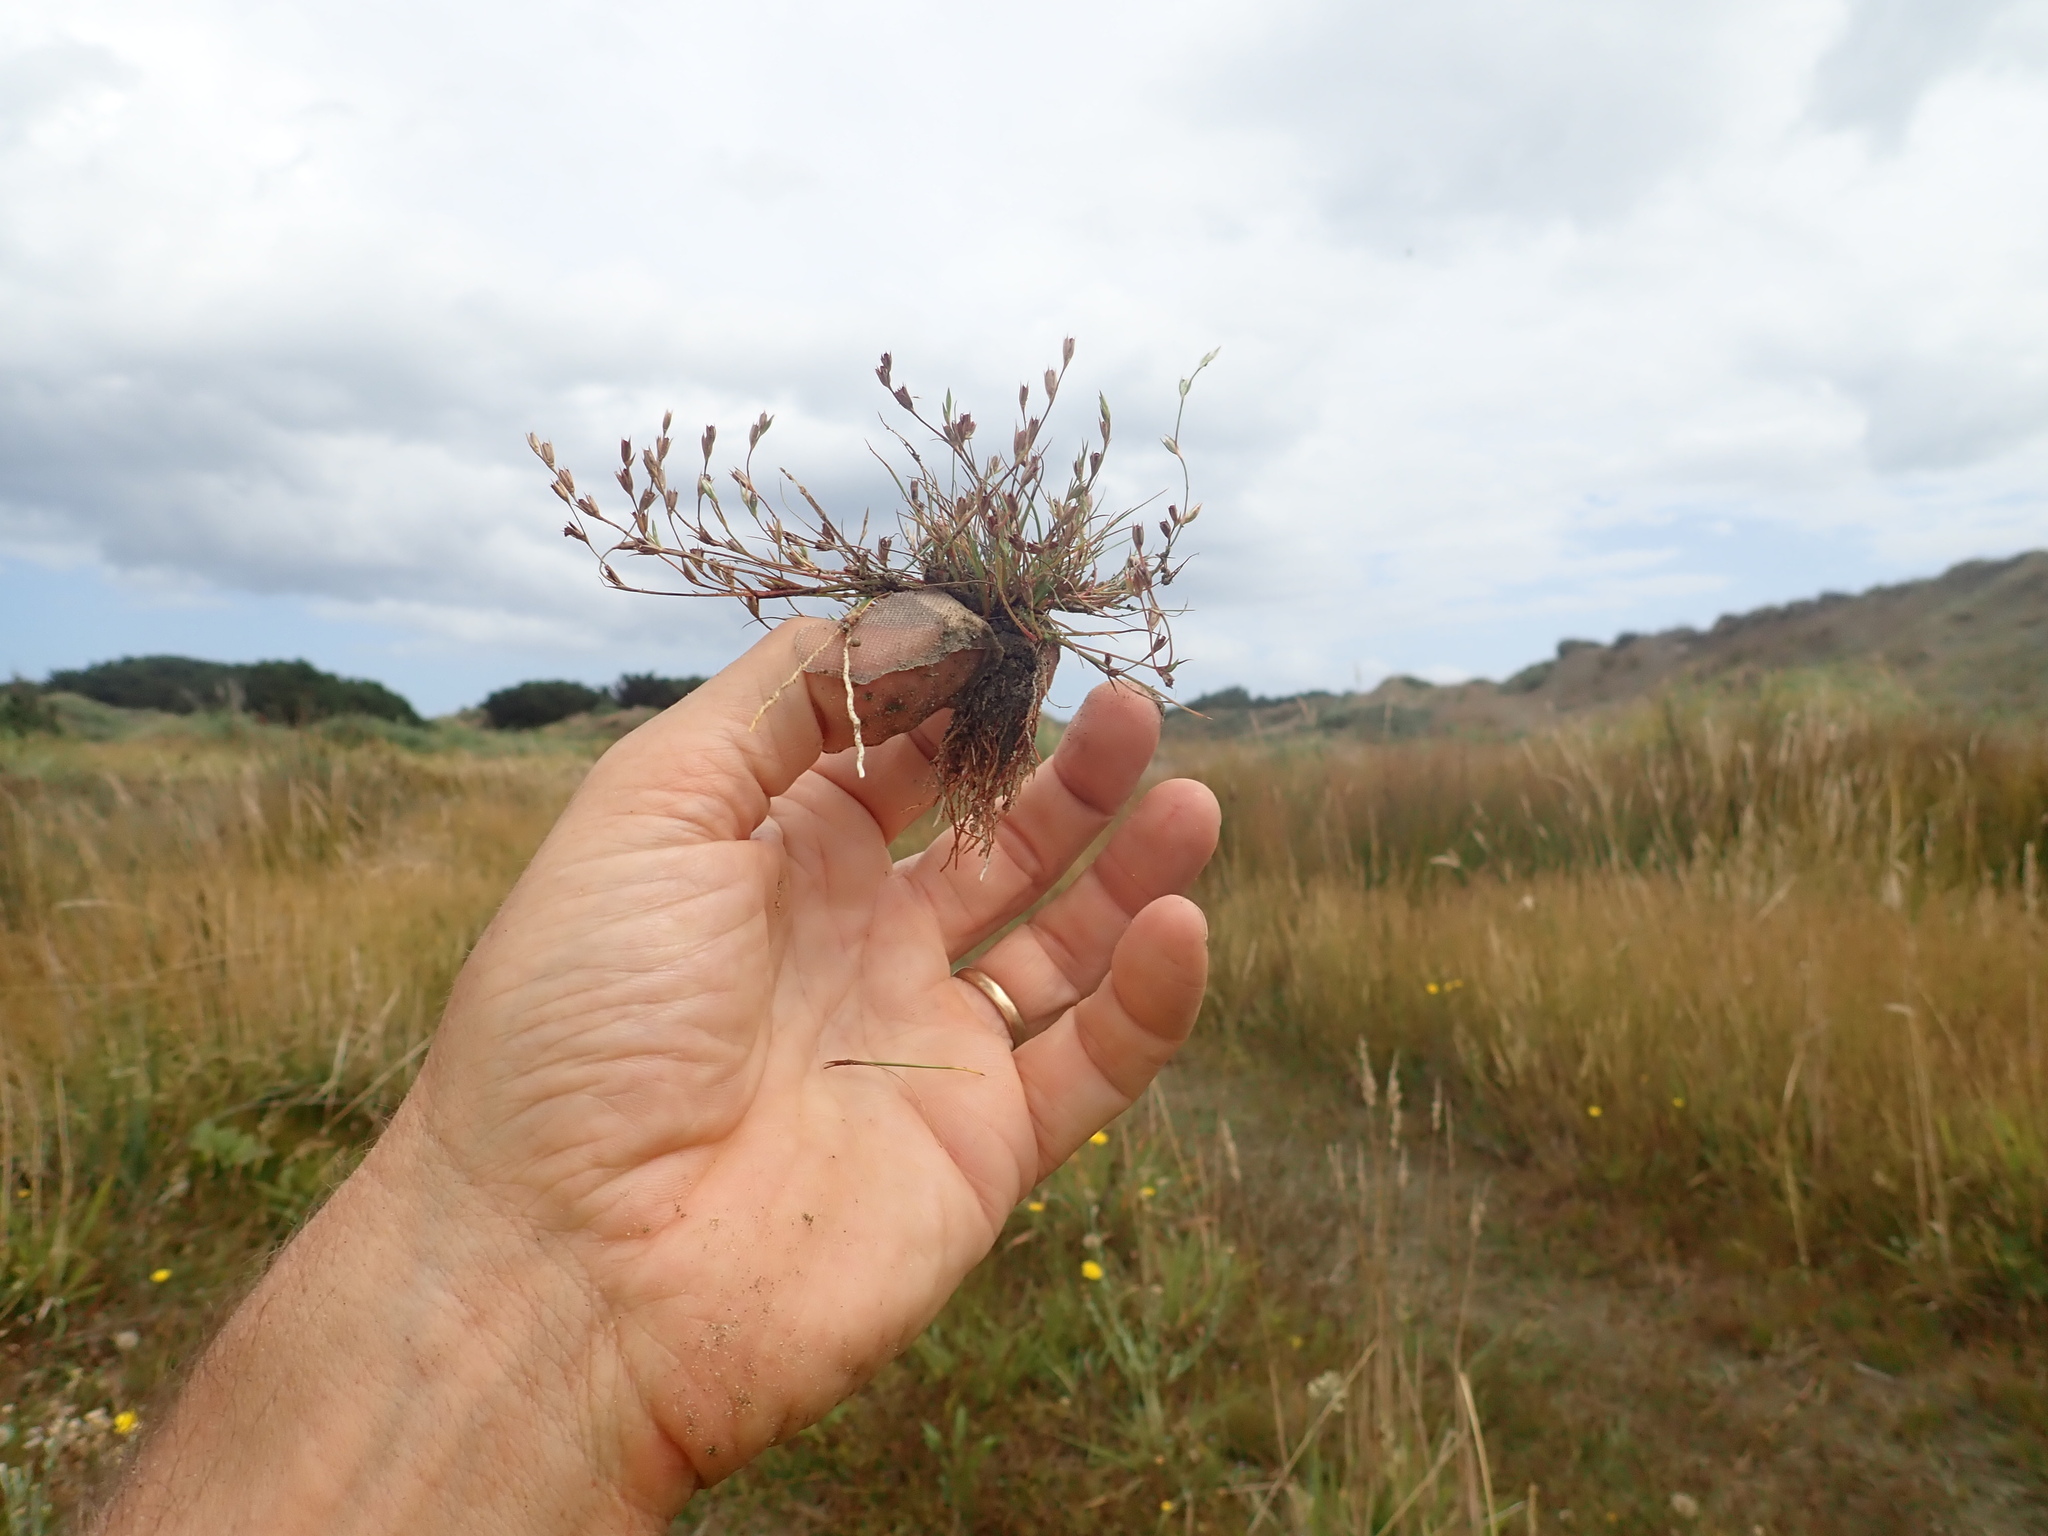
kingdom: Plantae
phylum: Tracheophyta
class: Liliopsida
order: Poales
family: Juncaceae
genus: Juncus
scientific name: Juncus bufonius
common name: Toad rush
